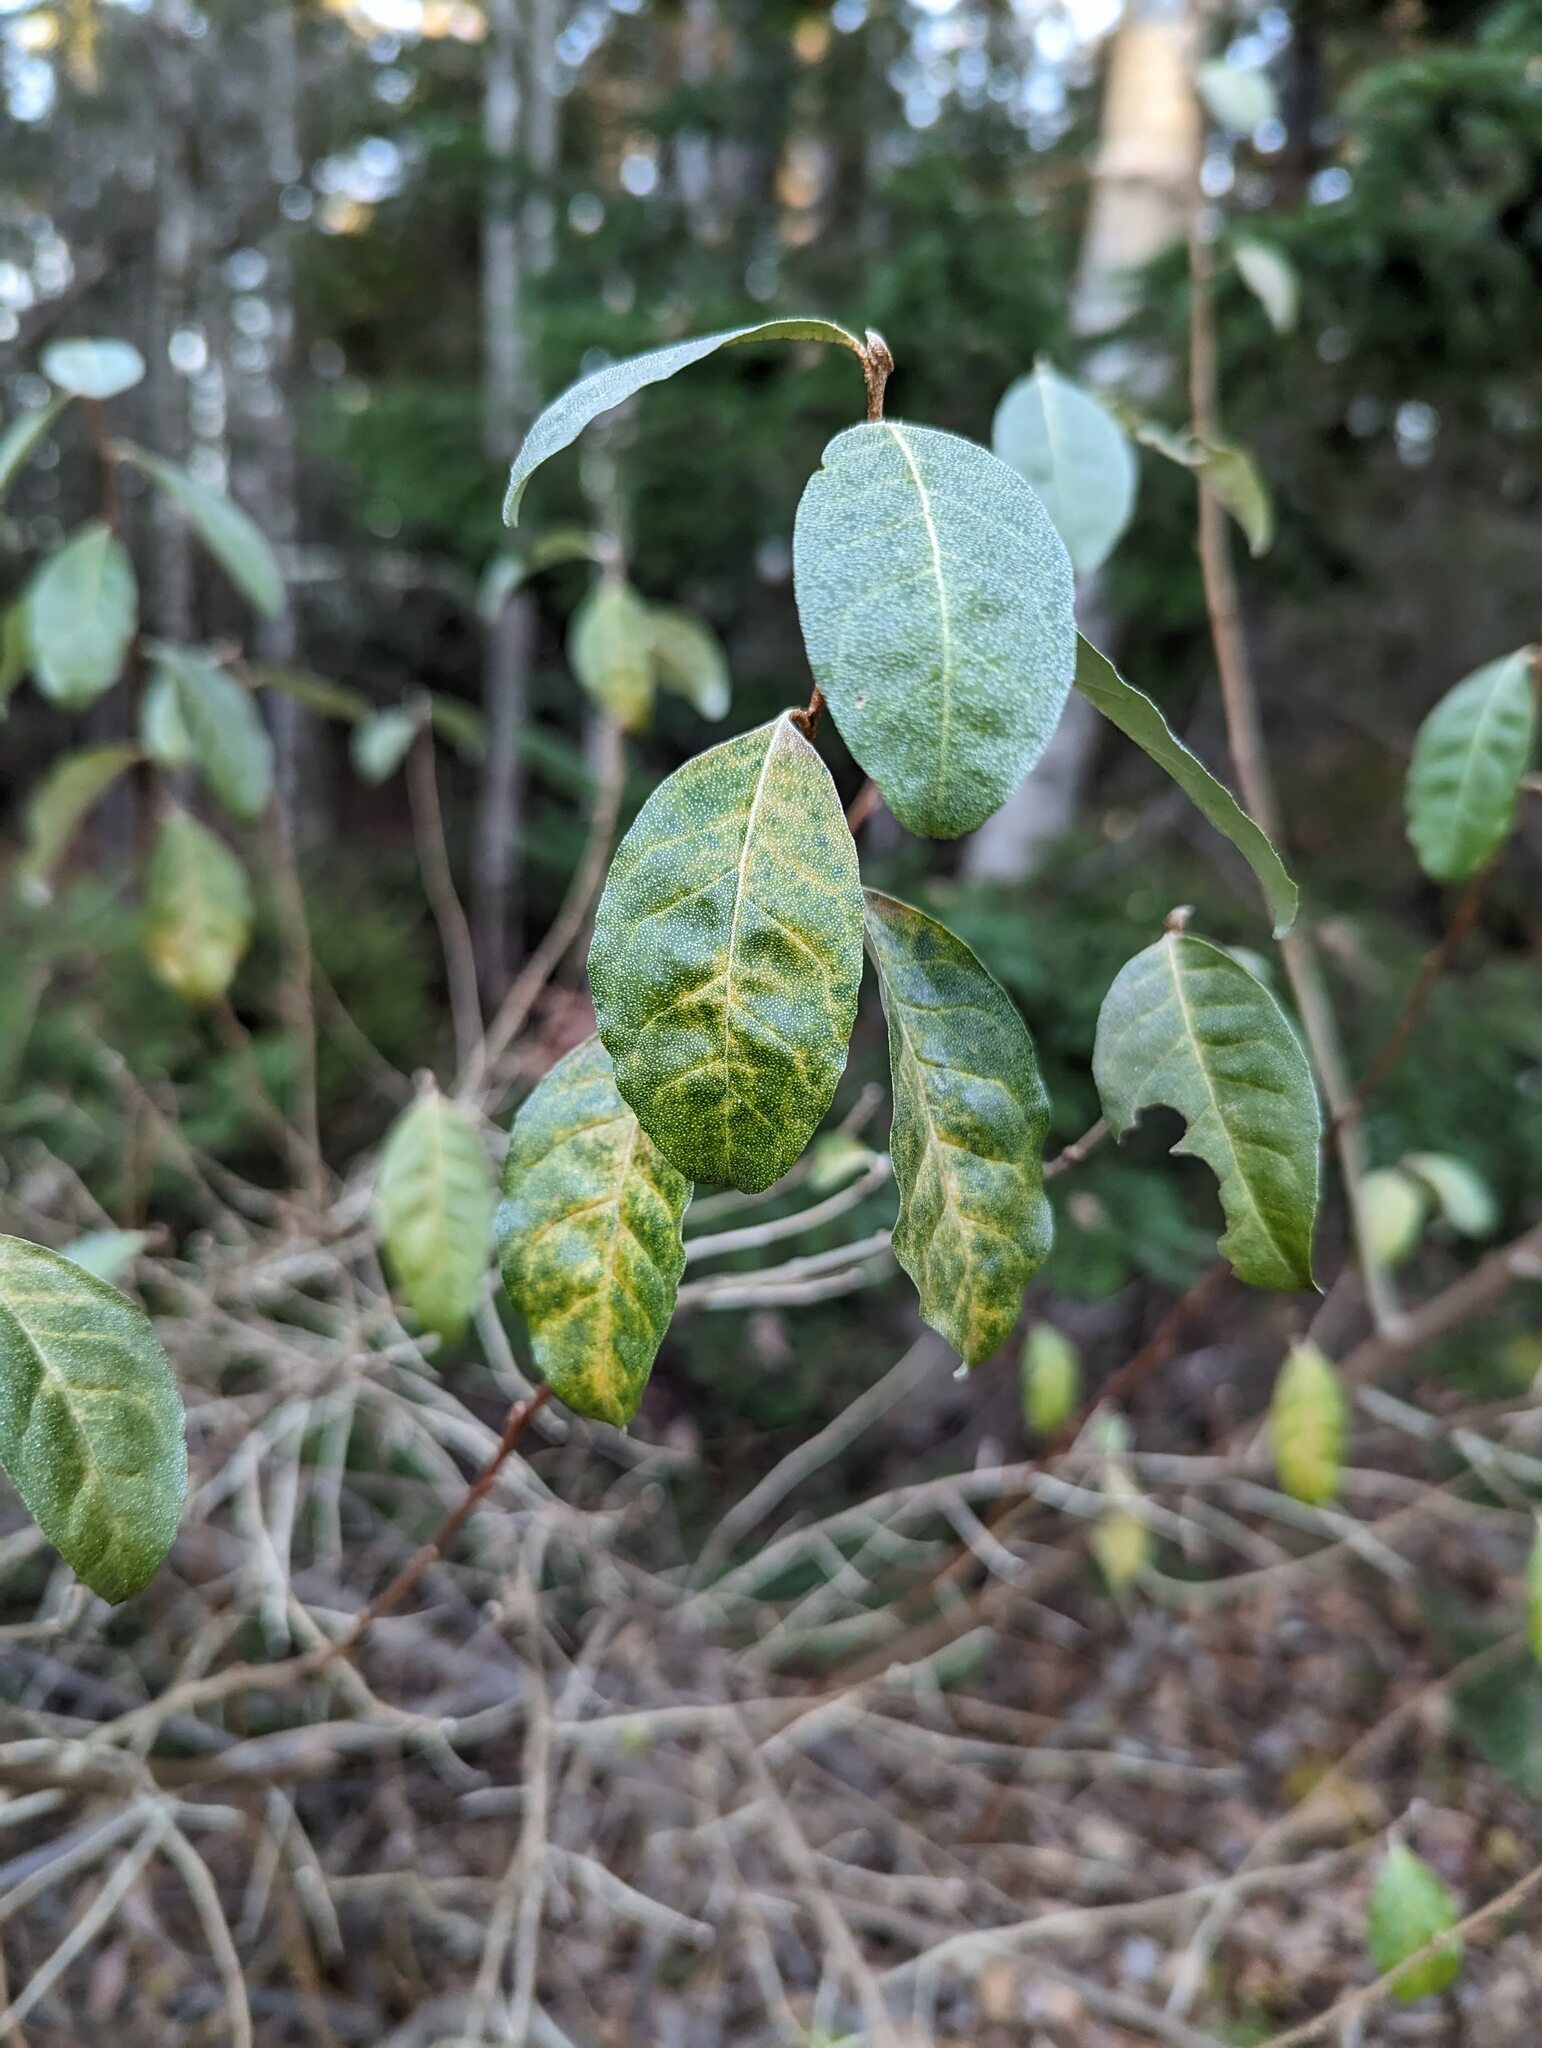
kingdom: Plantae
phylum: Tracheophyta
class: Magnoliopsida
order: Rosales
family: Elaeagnaceae
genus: Elaeagnus
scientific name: Elaeagnus umbellata
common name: Autumn olive
